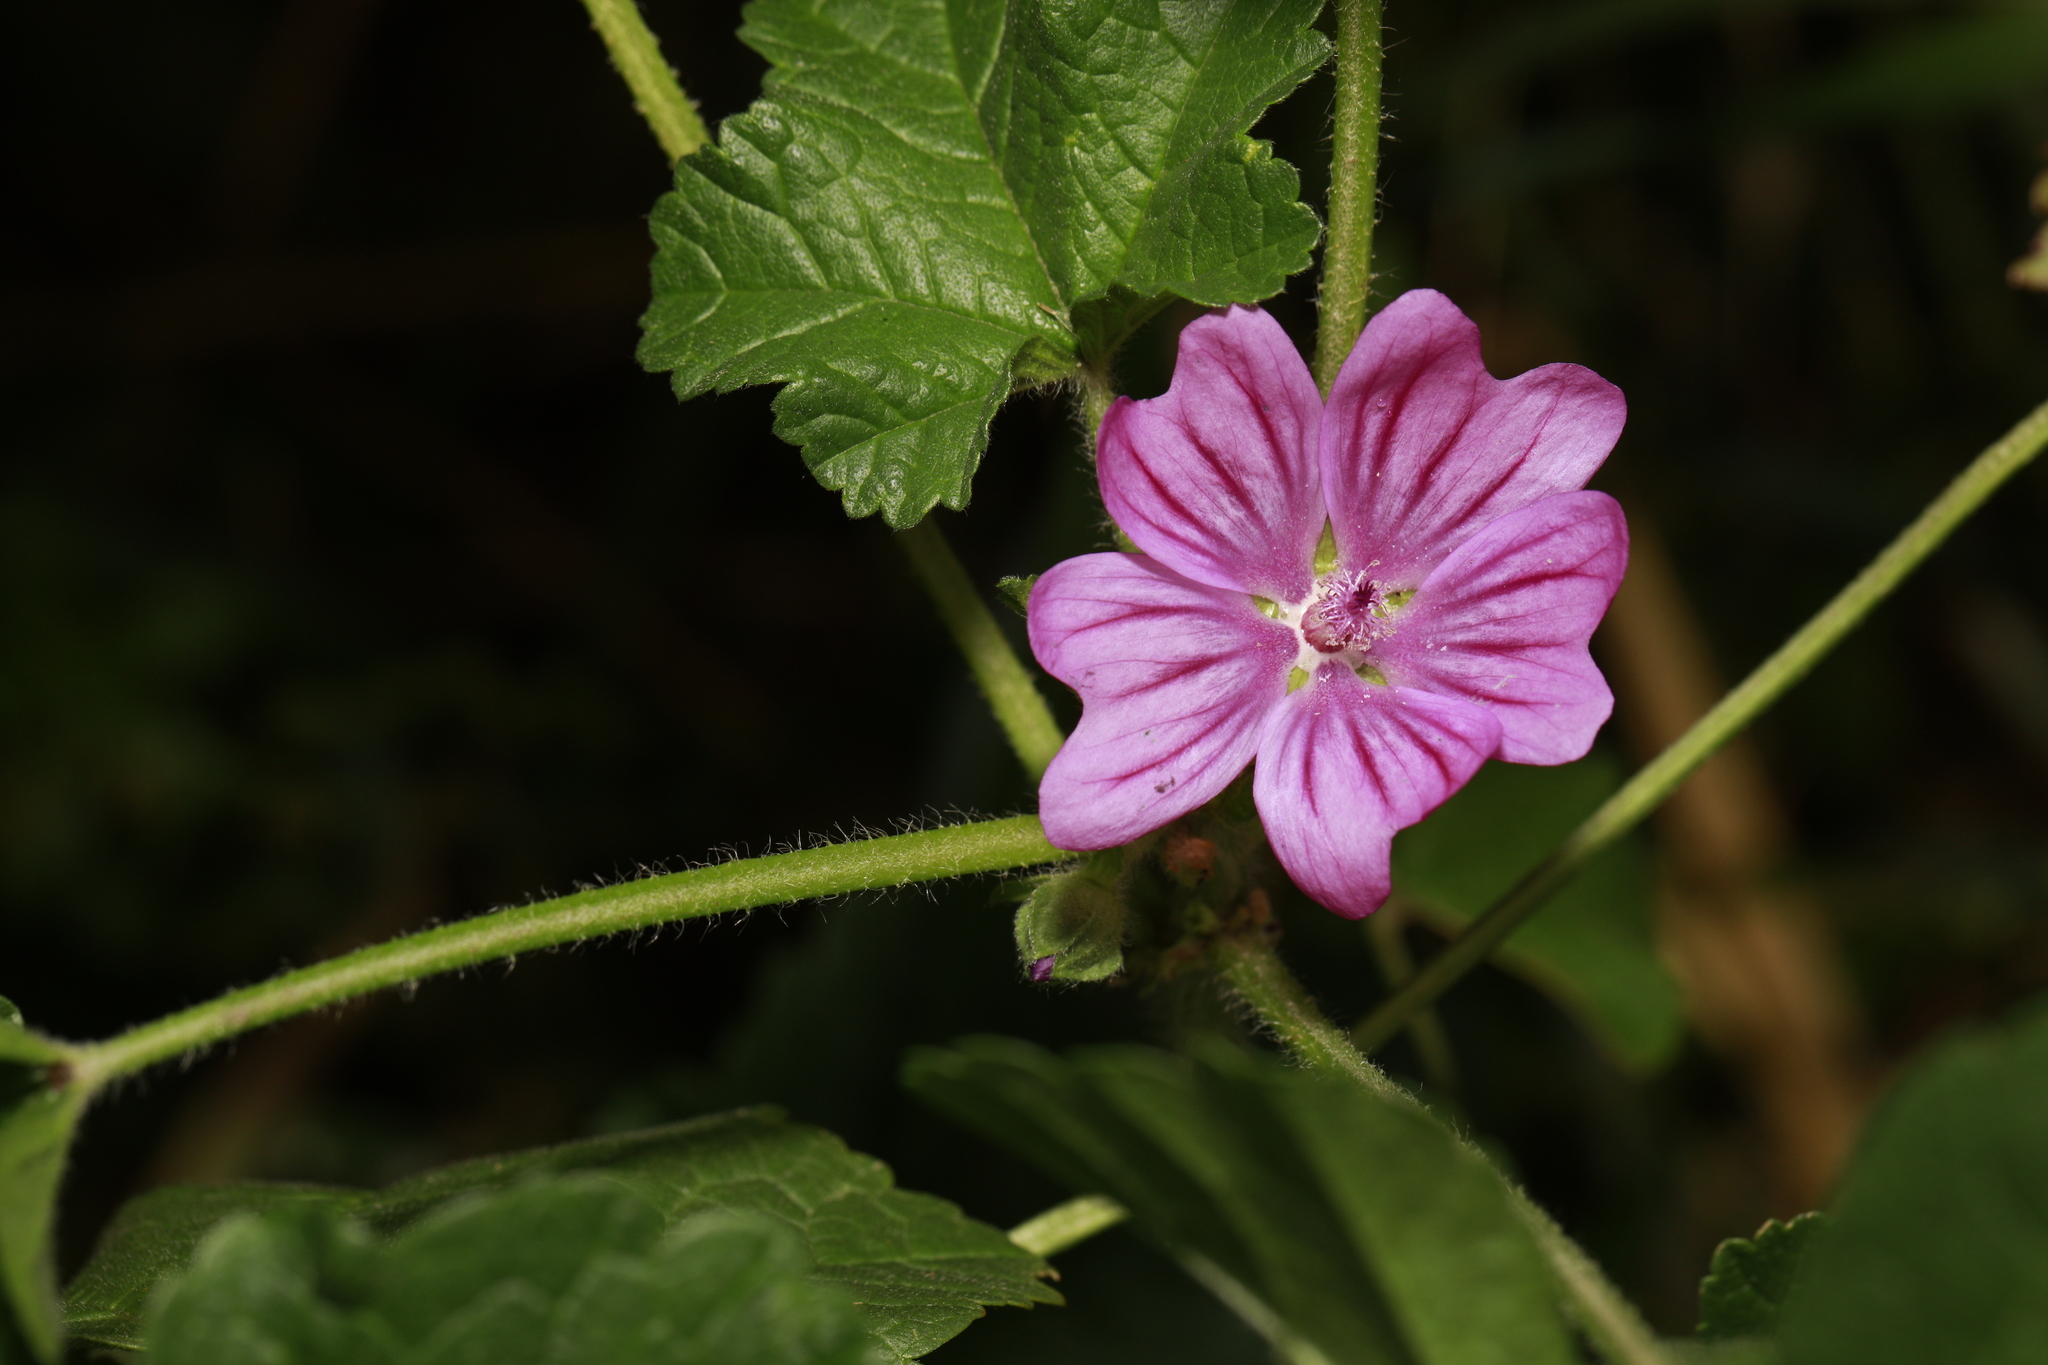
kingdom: Plantae
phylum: Tracheophyta
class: Magnoliopsida
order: Malvales
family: Malvaceae
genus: Malva
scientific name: Malva sylvestris
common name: Common mallow
